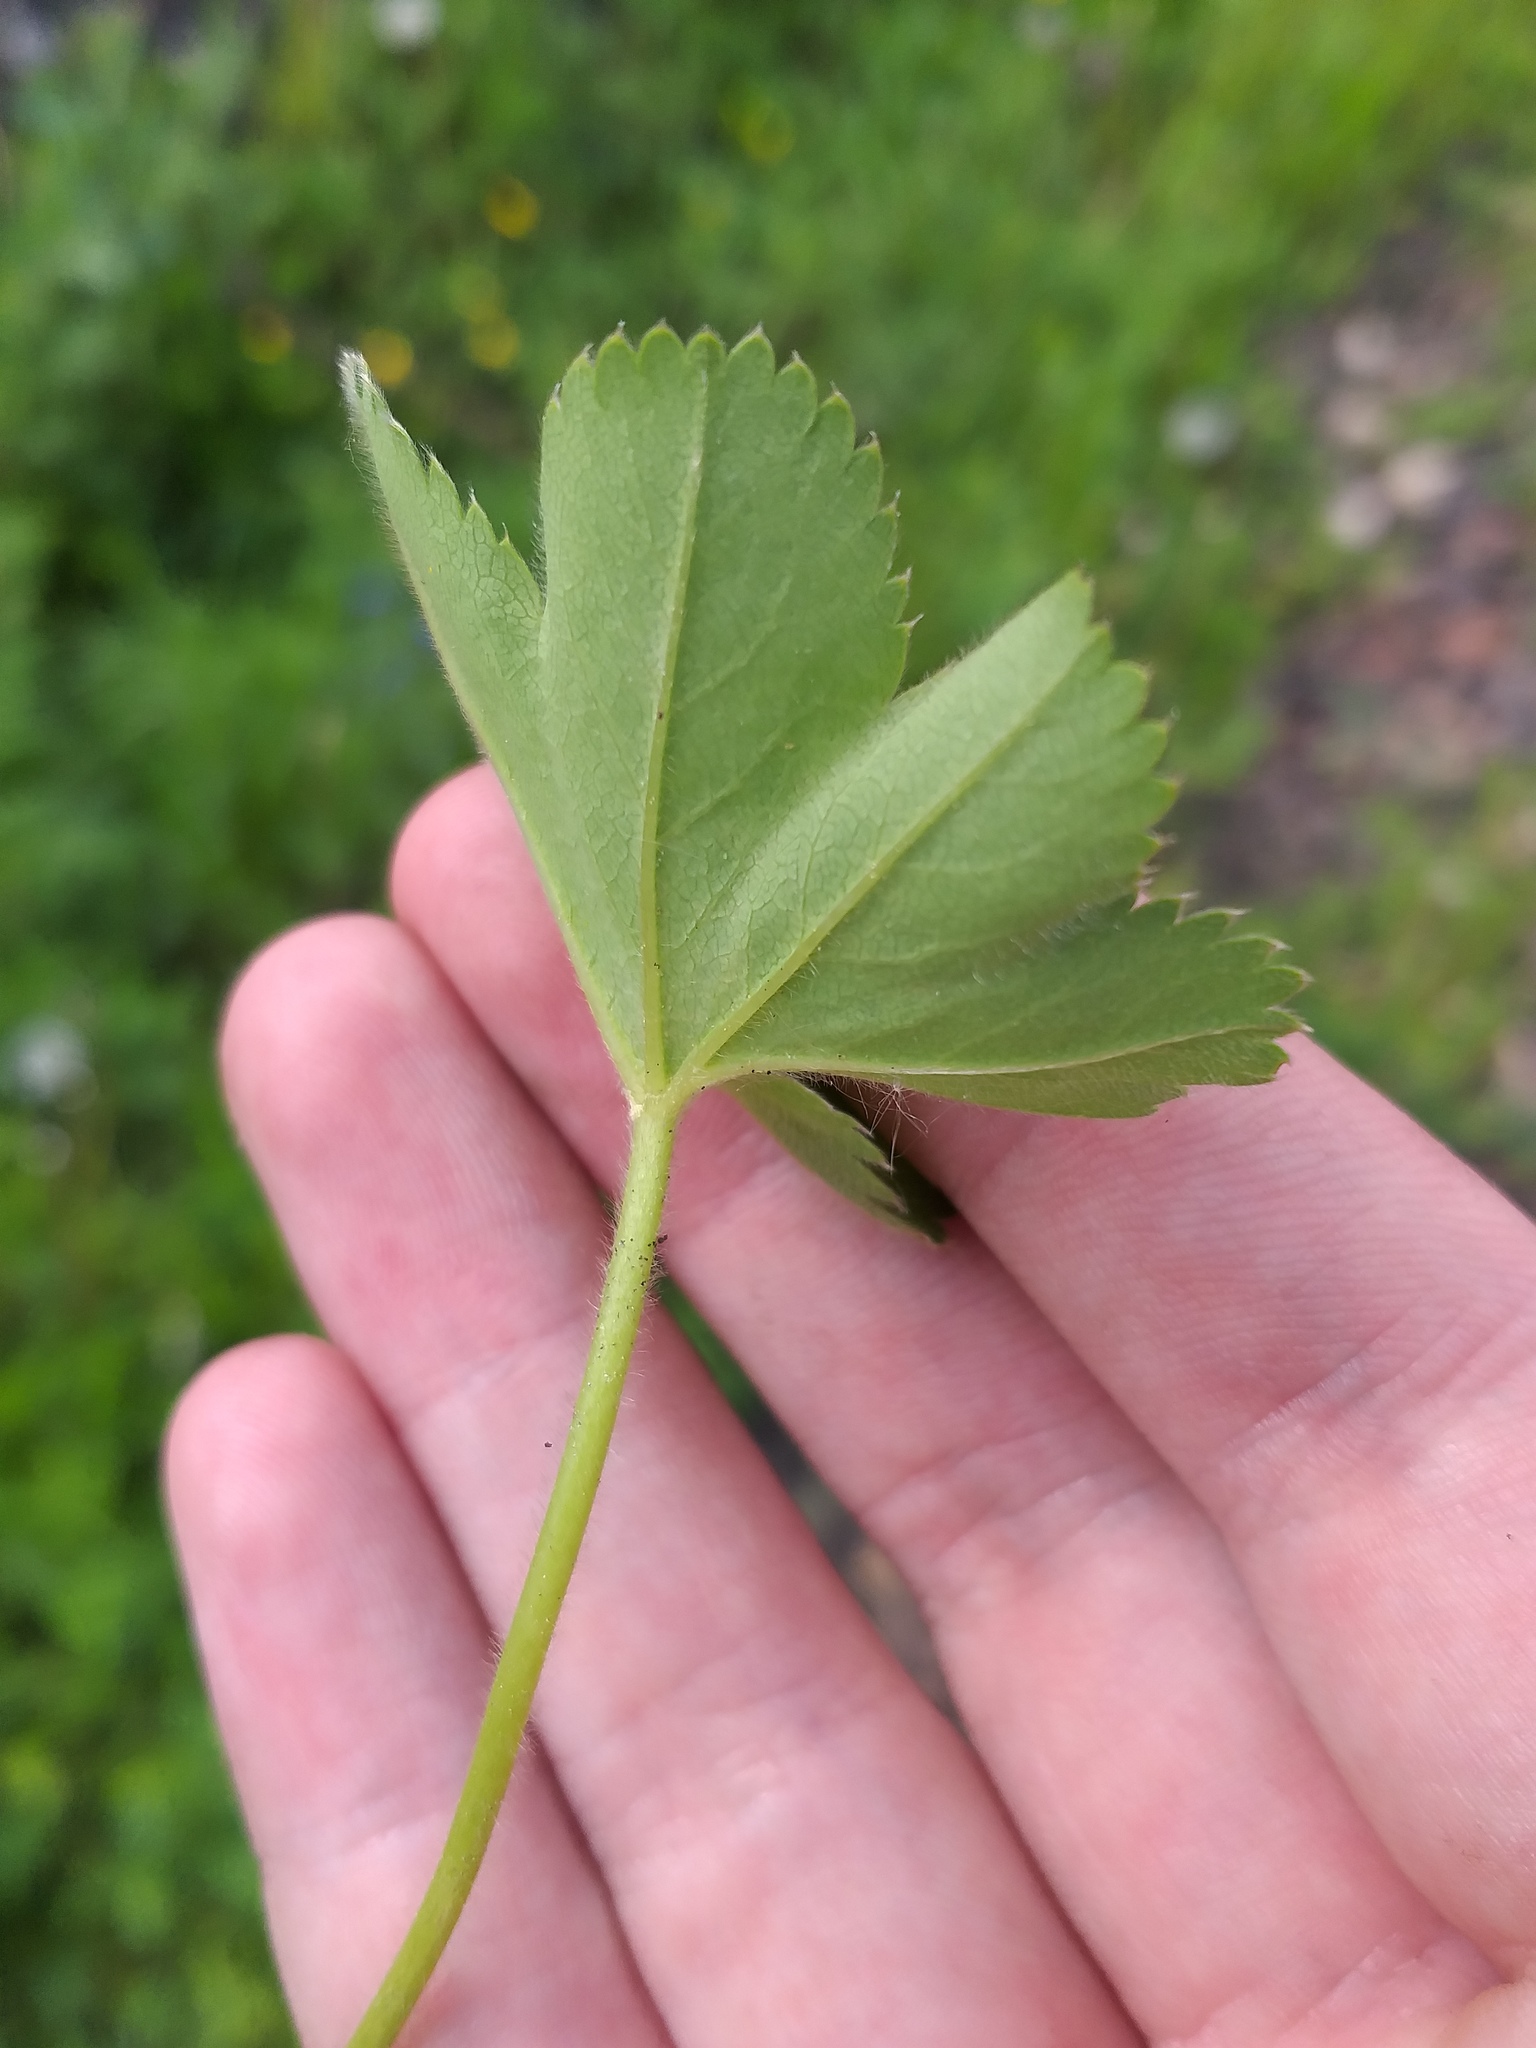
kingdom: Plantae
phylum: Tracheophyta
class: Magnoliopsida
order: Rosales
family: Rosaceae
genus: Alchemilla
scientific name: Alchemilla micans
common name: Gleaming lady's mantle
